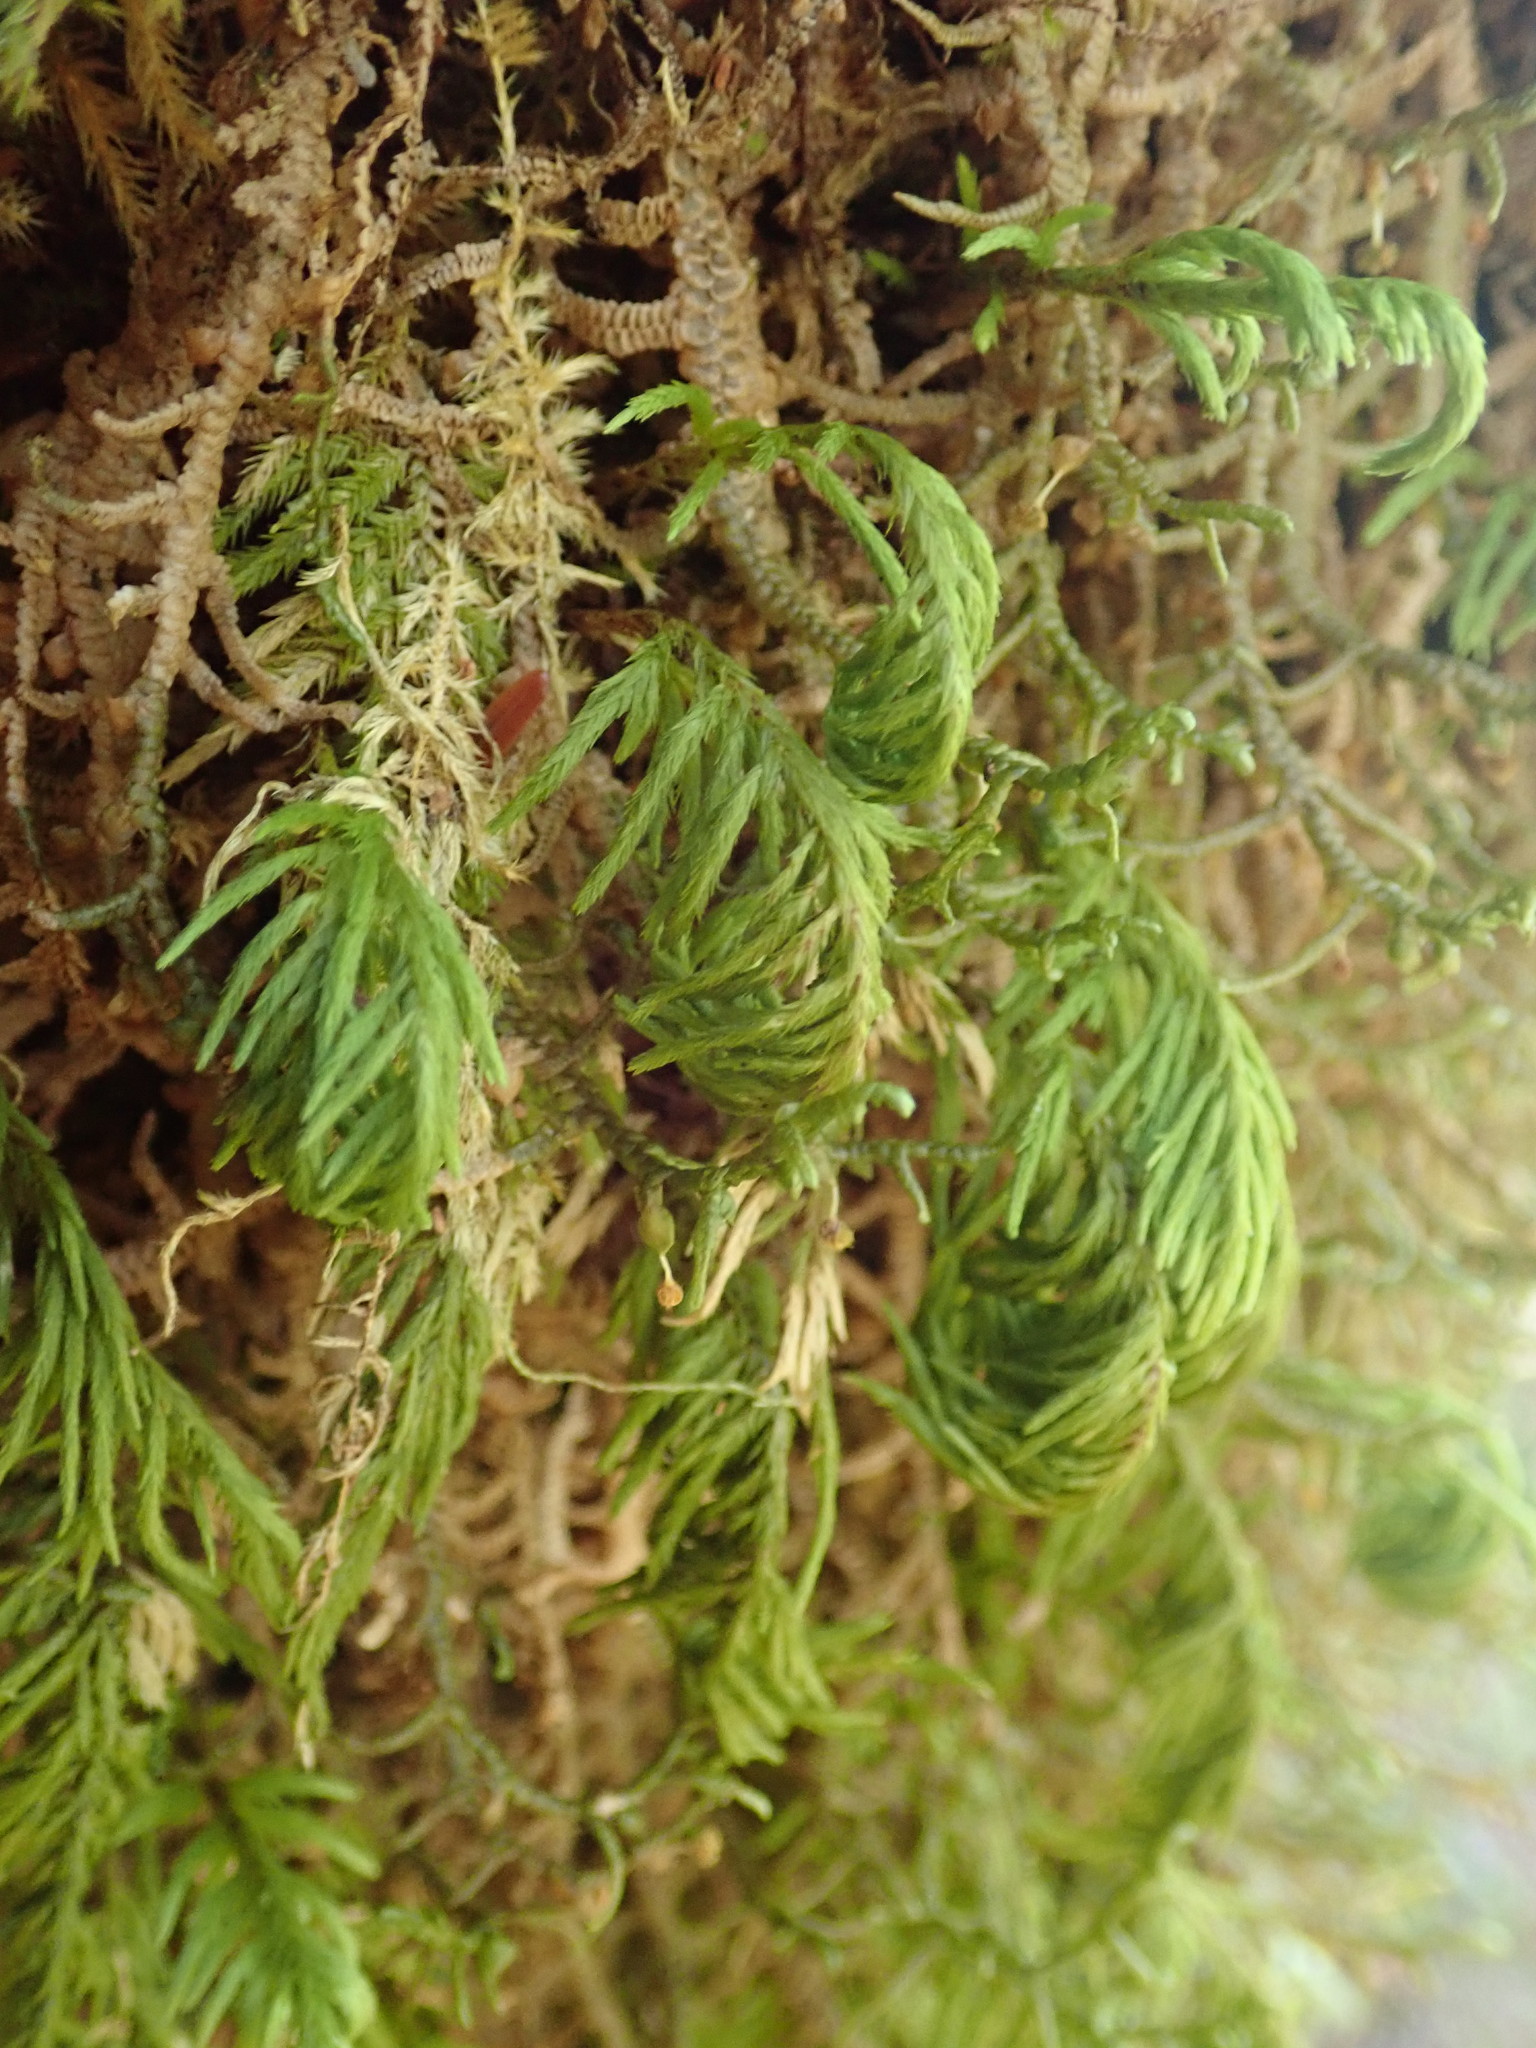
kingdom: Plantae
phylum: Bryophyta
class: Bryopsida
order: Hypnales
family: Cryphaeaceae
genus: Dendroalsia
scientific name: Dendroalsia abietina
